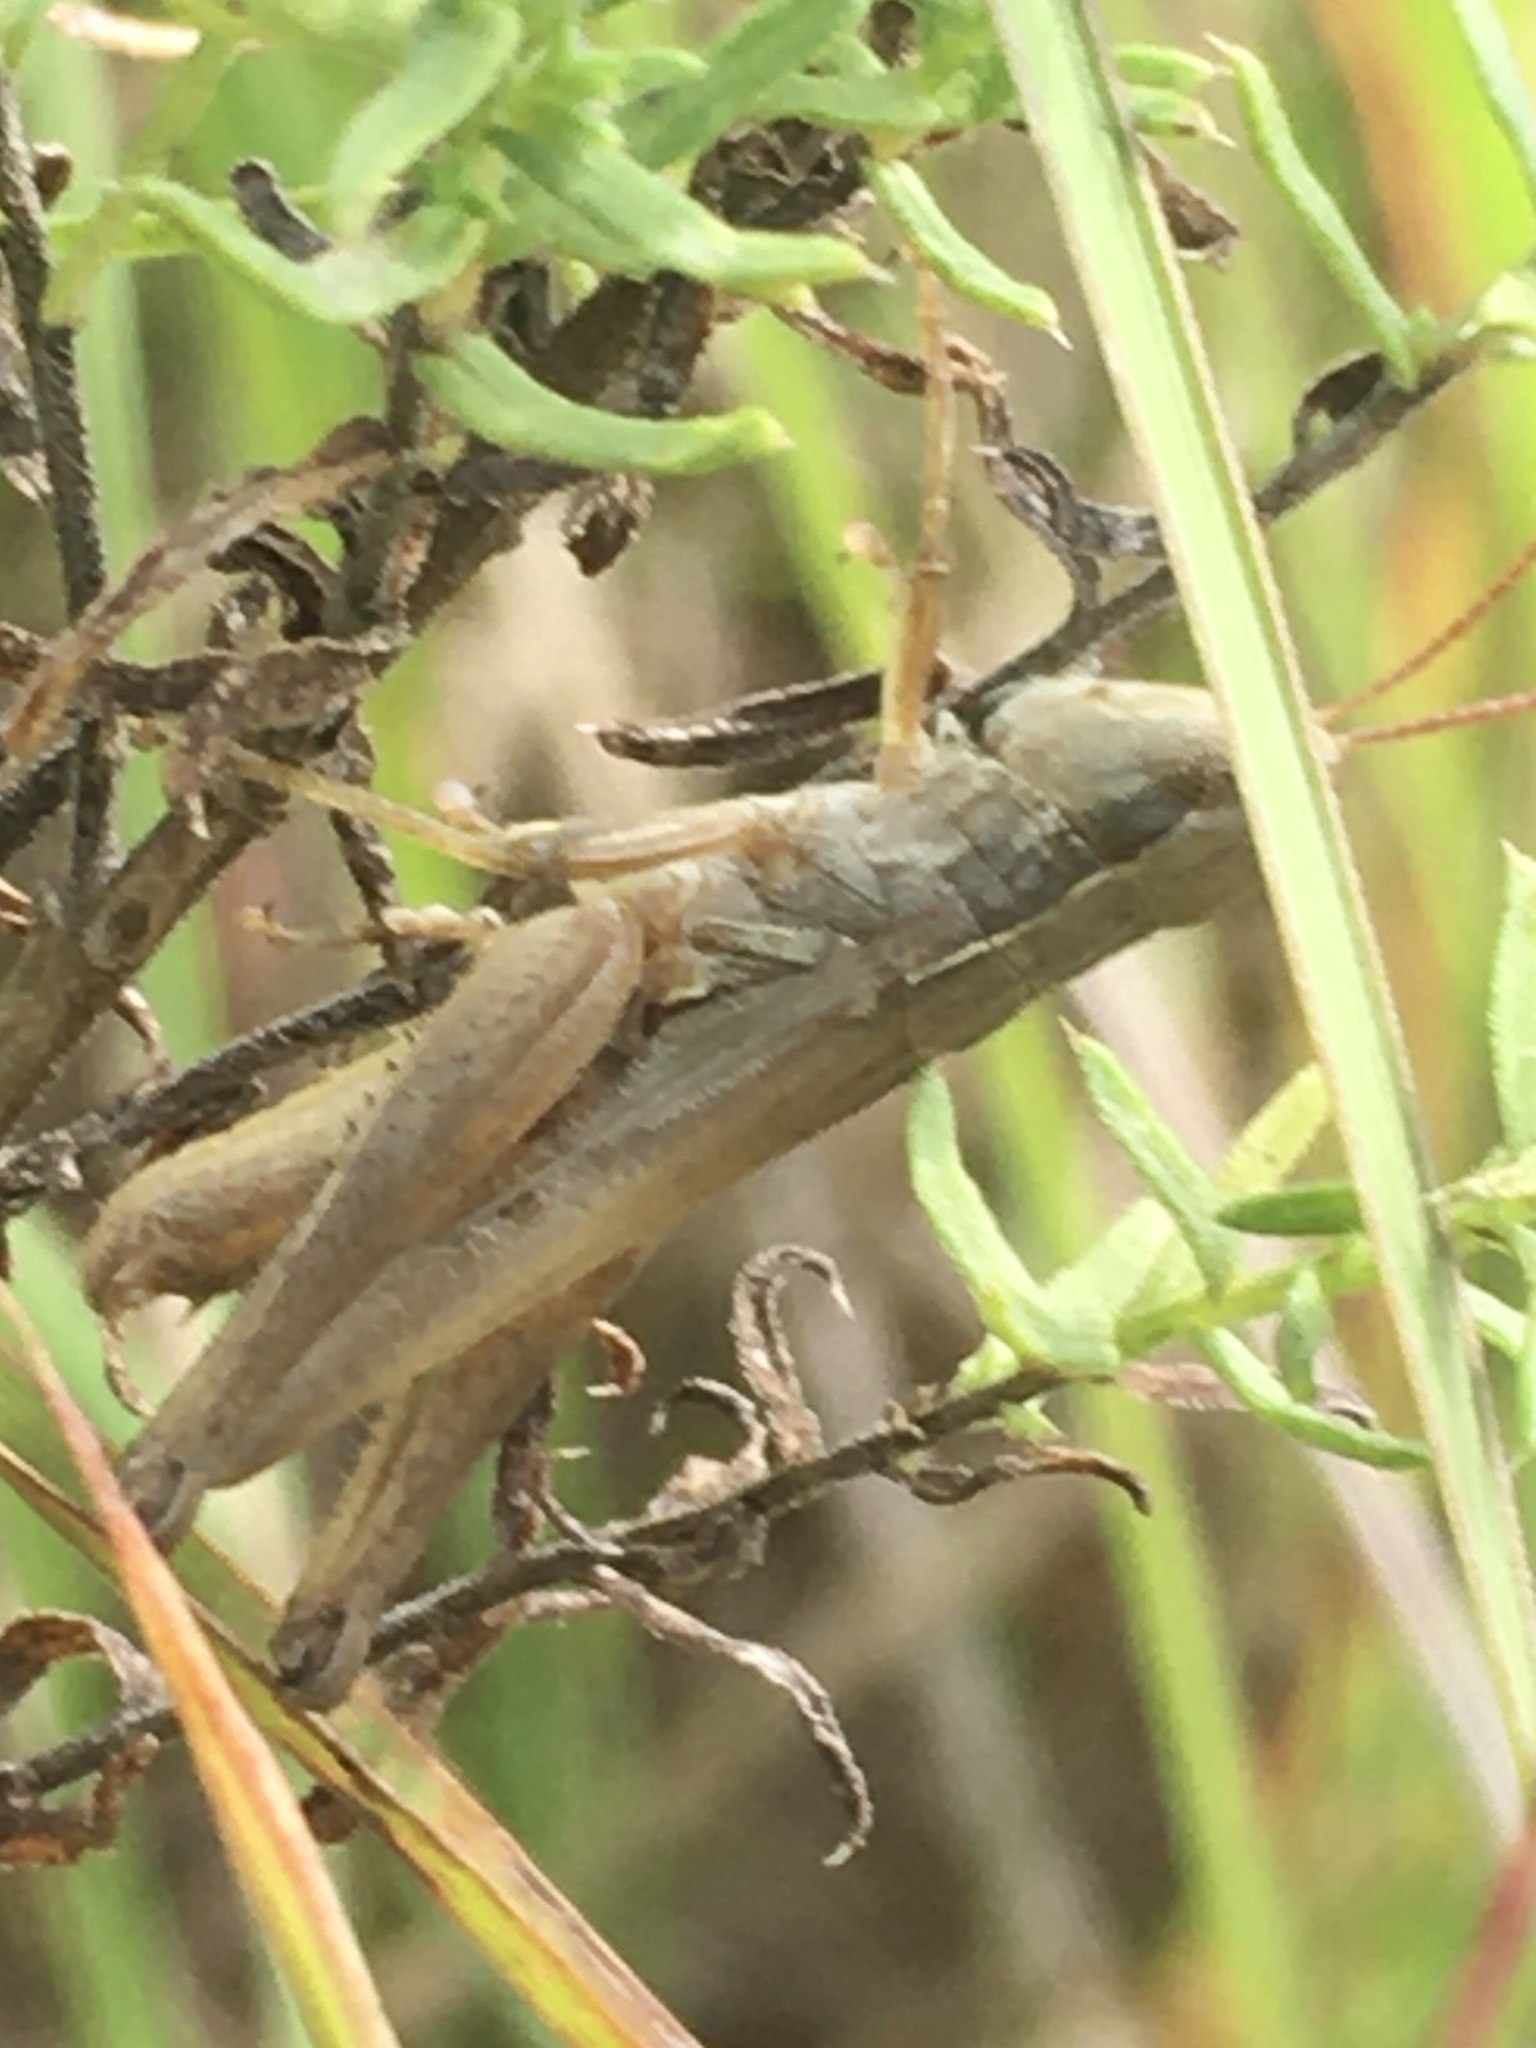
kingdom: Animalia
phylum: Arthropoda
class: Insecta
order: Orthoptera
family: Acrididae
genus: Orphulella
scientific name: Orphulella speciosa
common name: Pasture grasshopper
